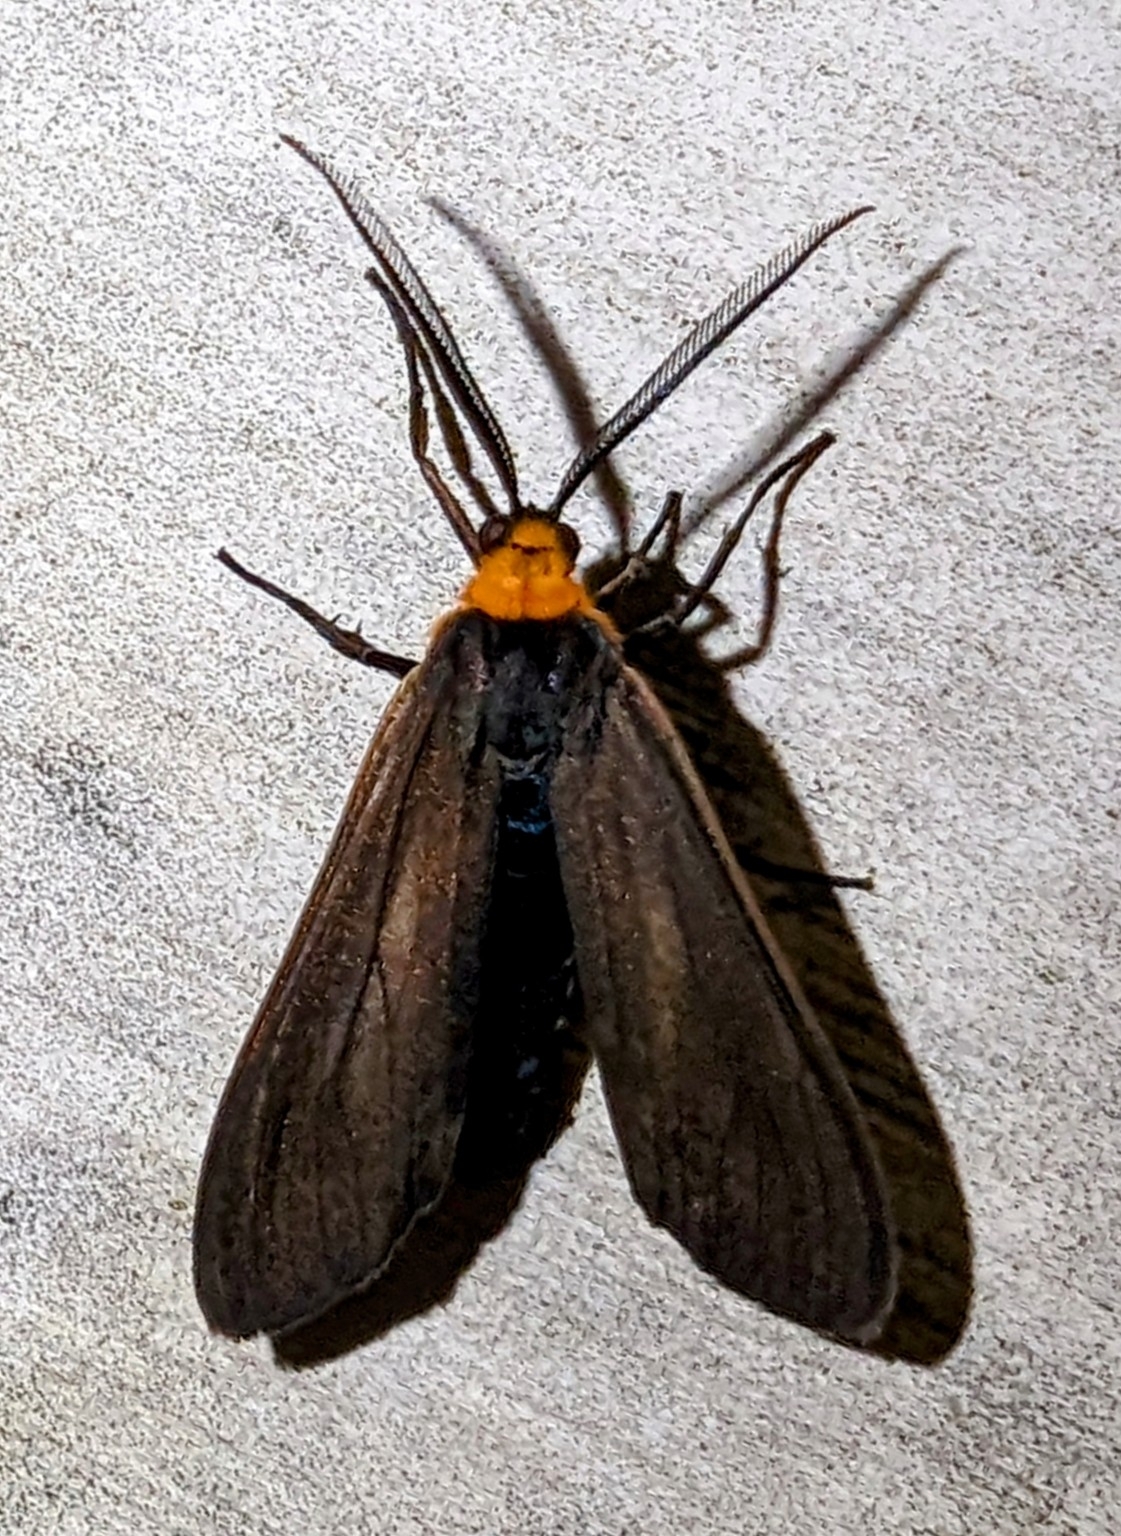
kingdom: Animalia
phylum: Arthropoda
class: Insecta
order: Lepidoptera
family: Erebidae
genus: Cisseps
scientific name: Cisseps fulvicollis
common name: Yellow-collared scape moth
